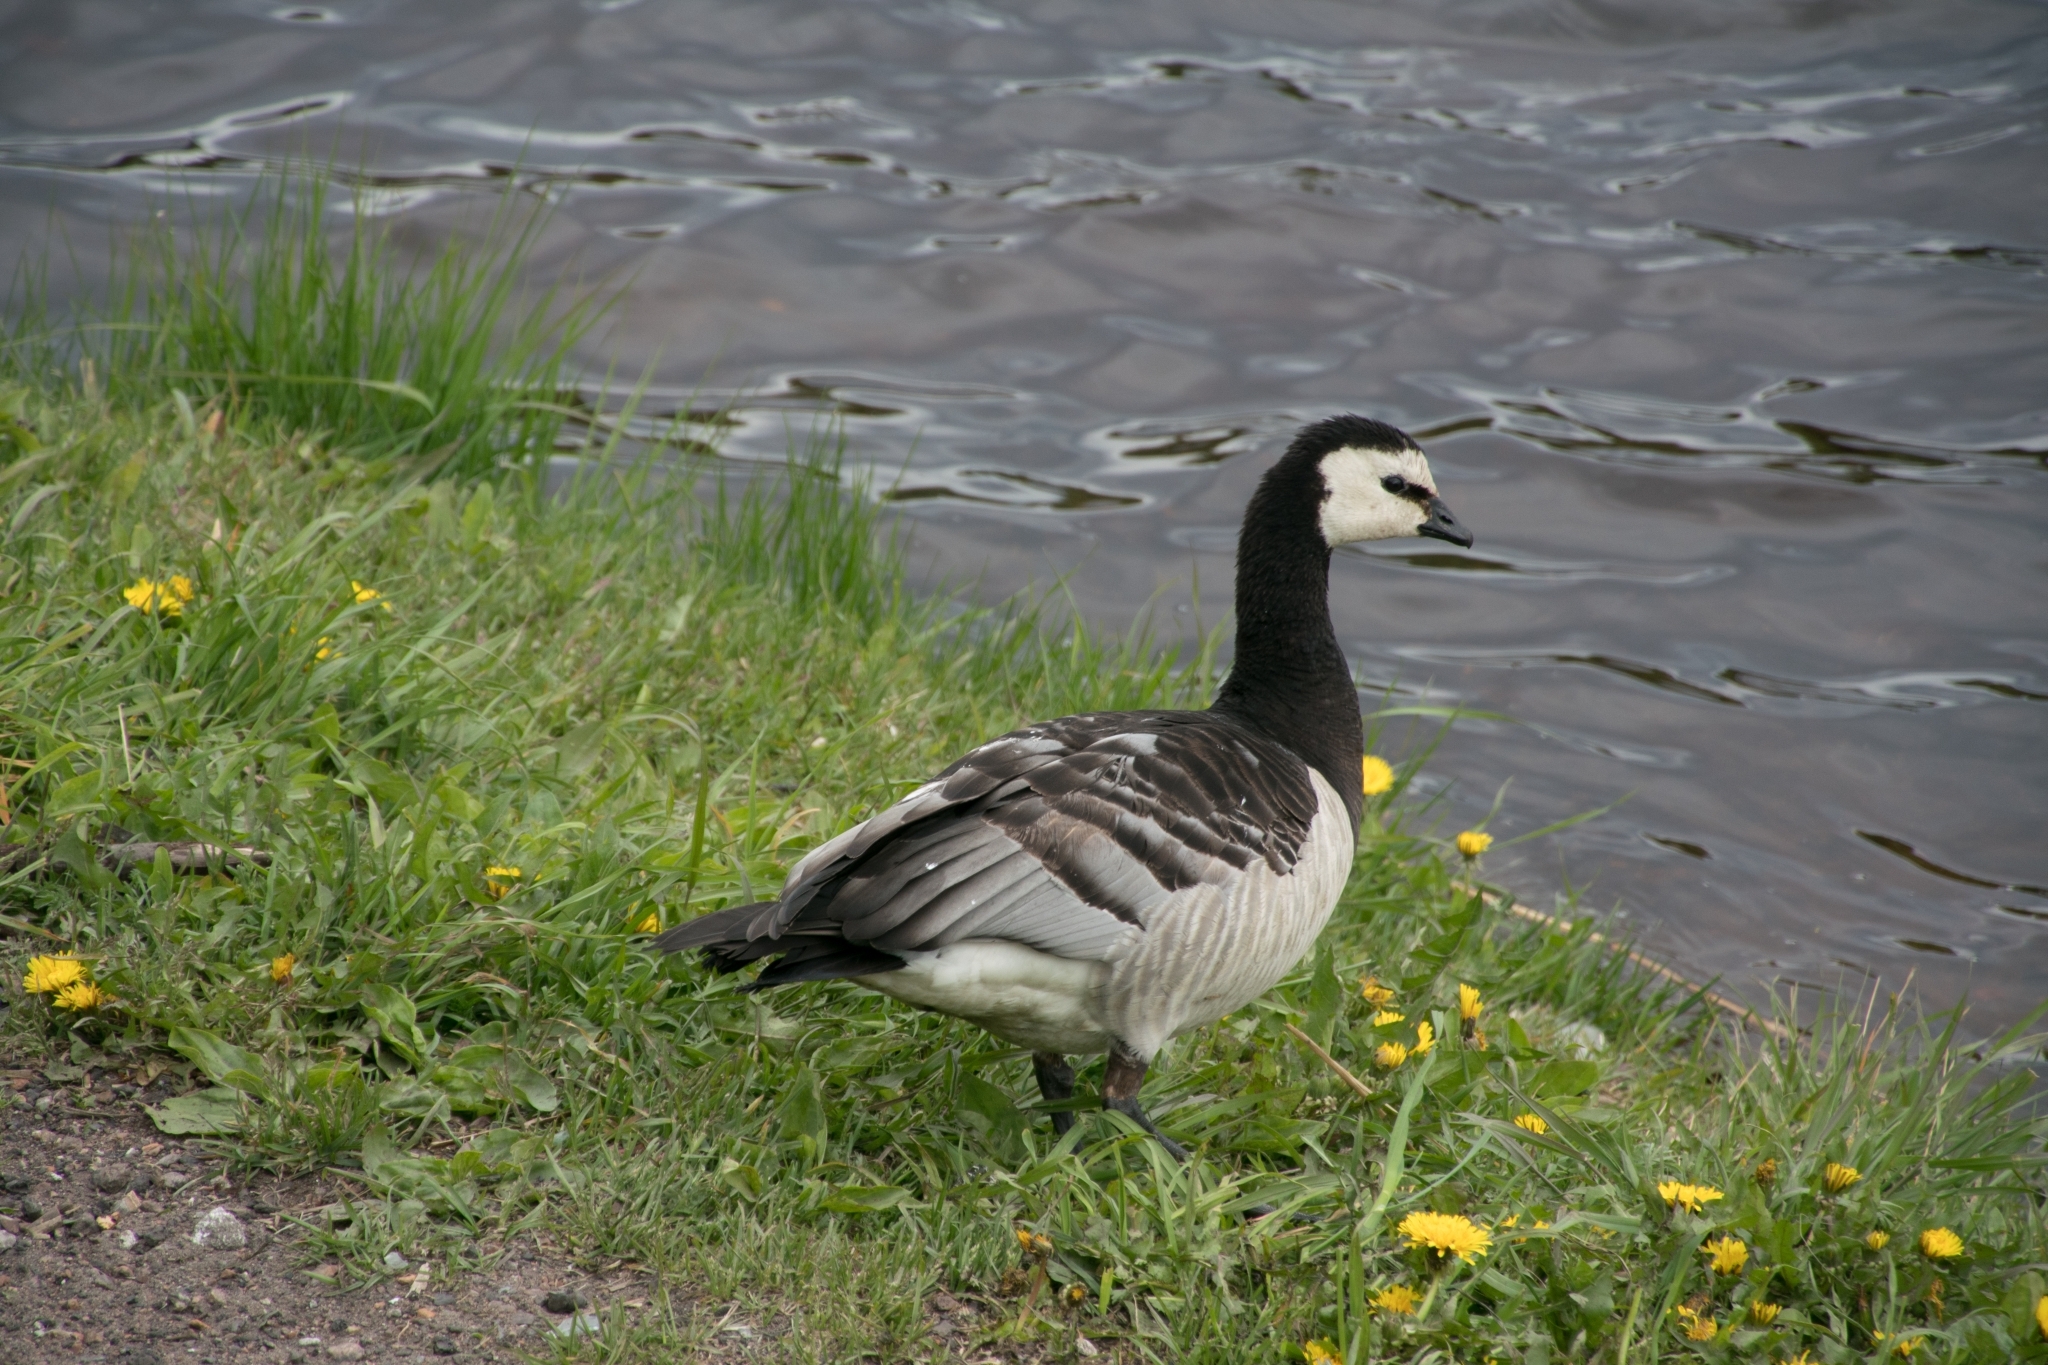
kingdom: Animalia
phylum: Chordata
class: Aves
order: Anseriformes
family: Anatidae
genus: Branta
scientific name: Branta leucopsis
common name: Barnacle goose
